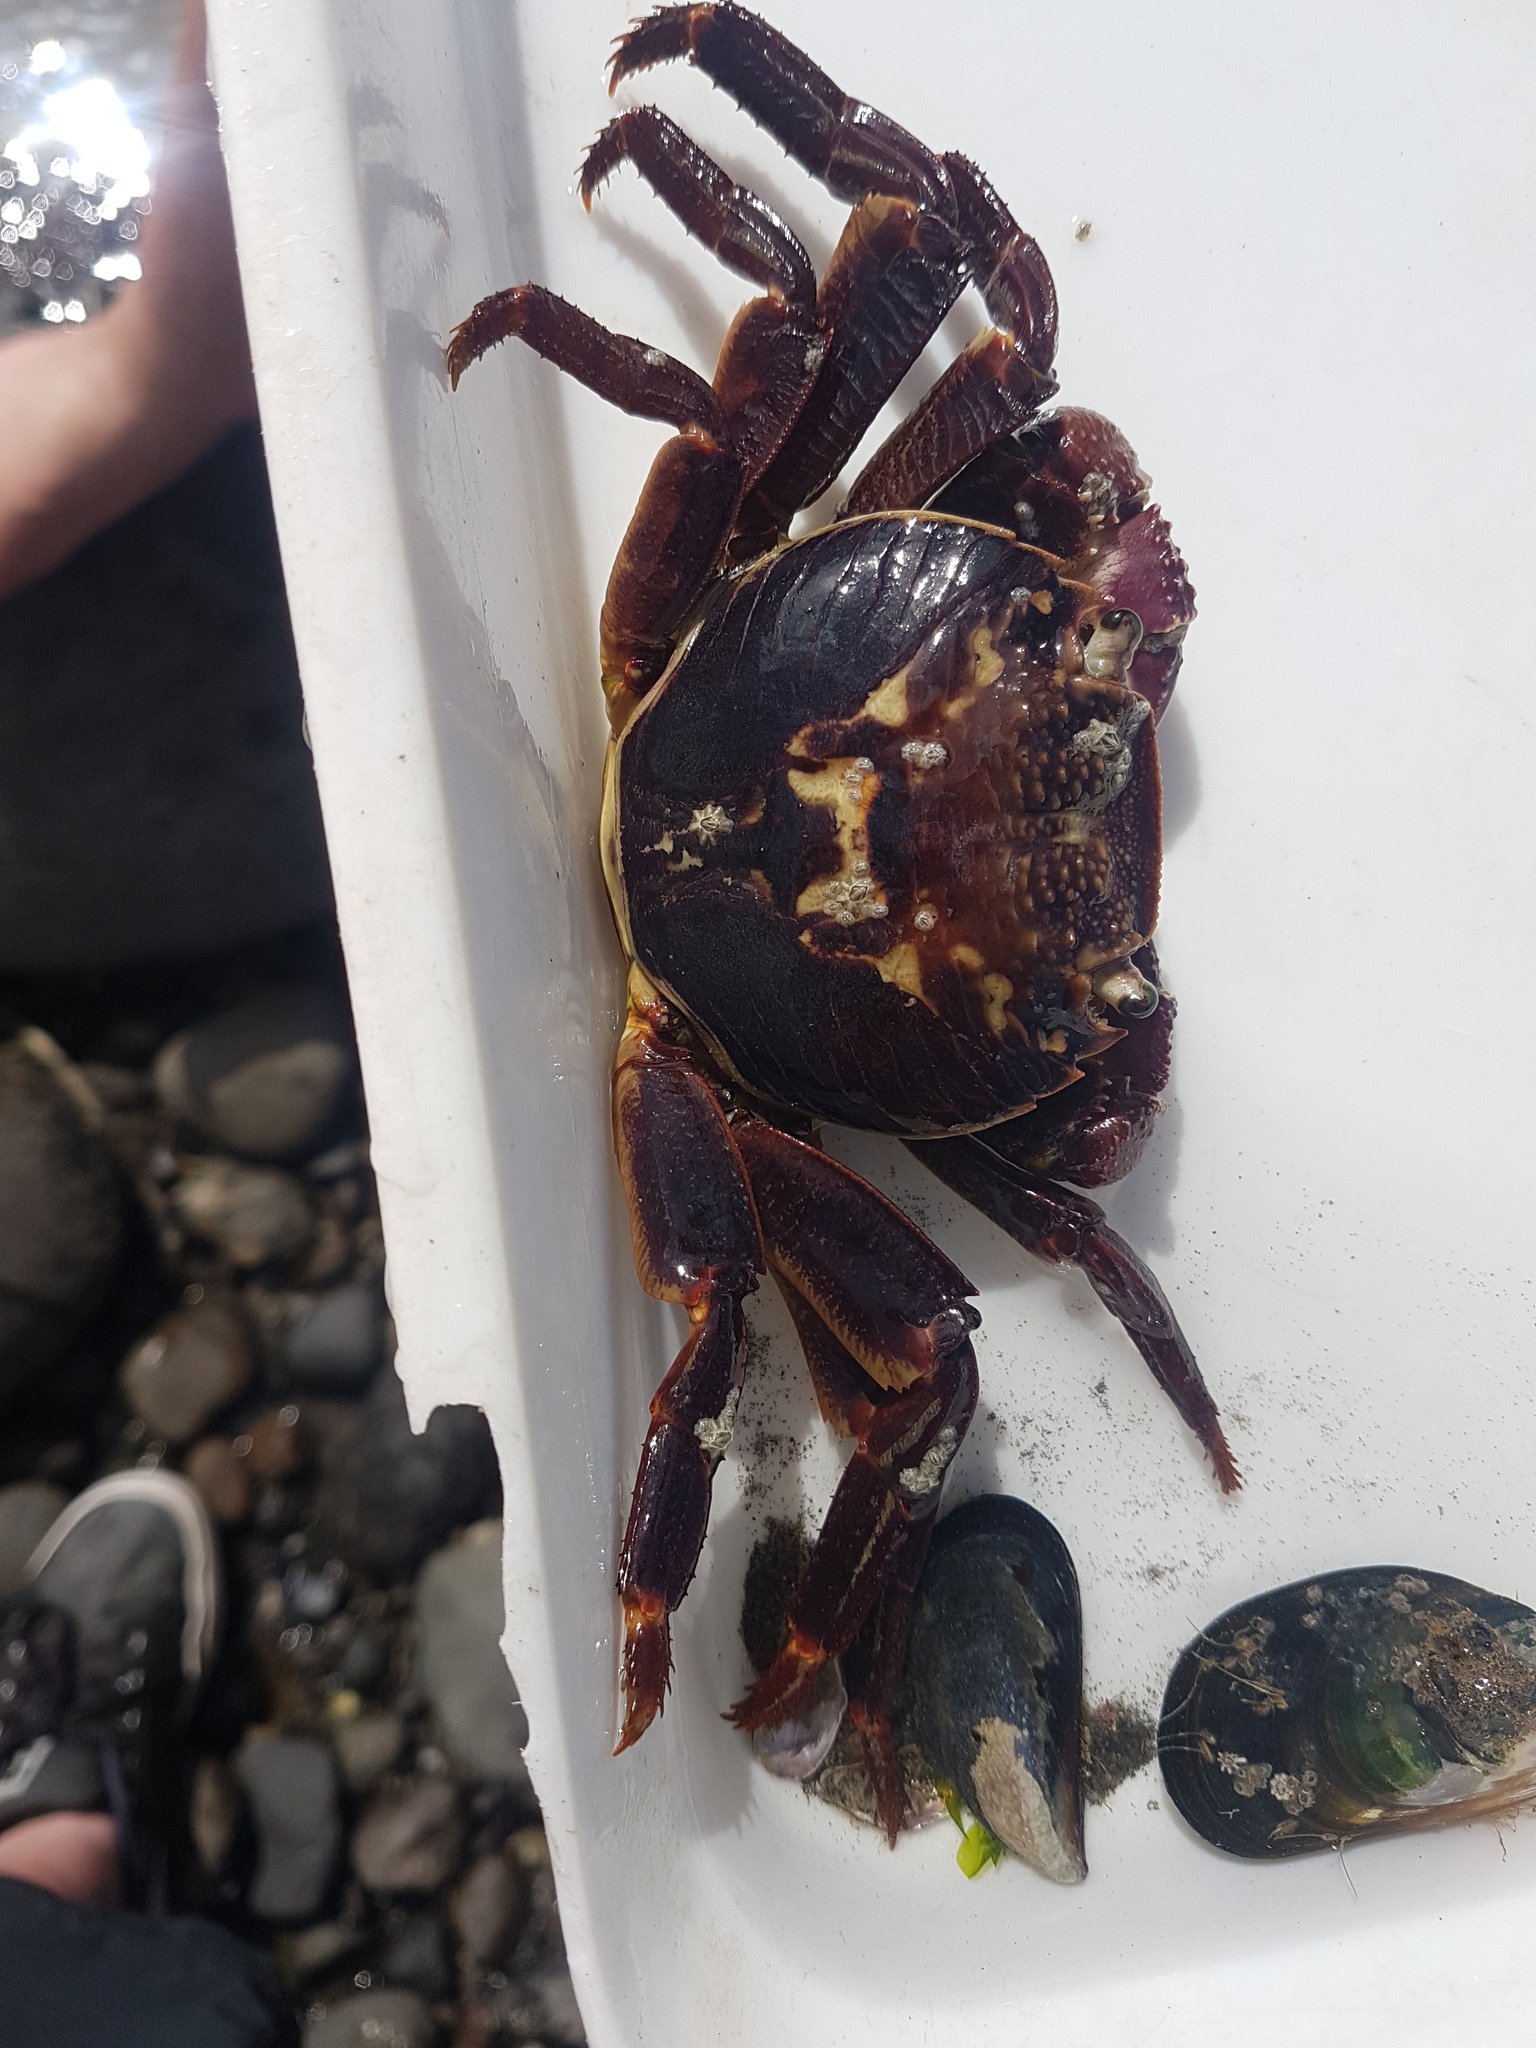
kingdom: Animalia
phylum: Arthropoda
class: Malacostraca
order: Decapoda
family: Grapsidae
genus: Leptograpsus
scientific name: Leptograpsus variegatus
